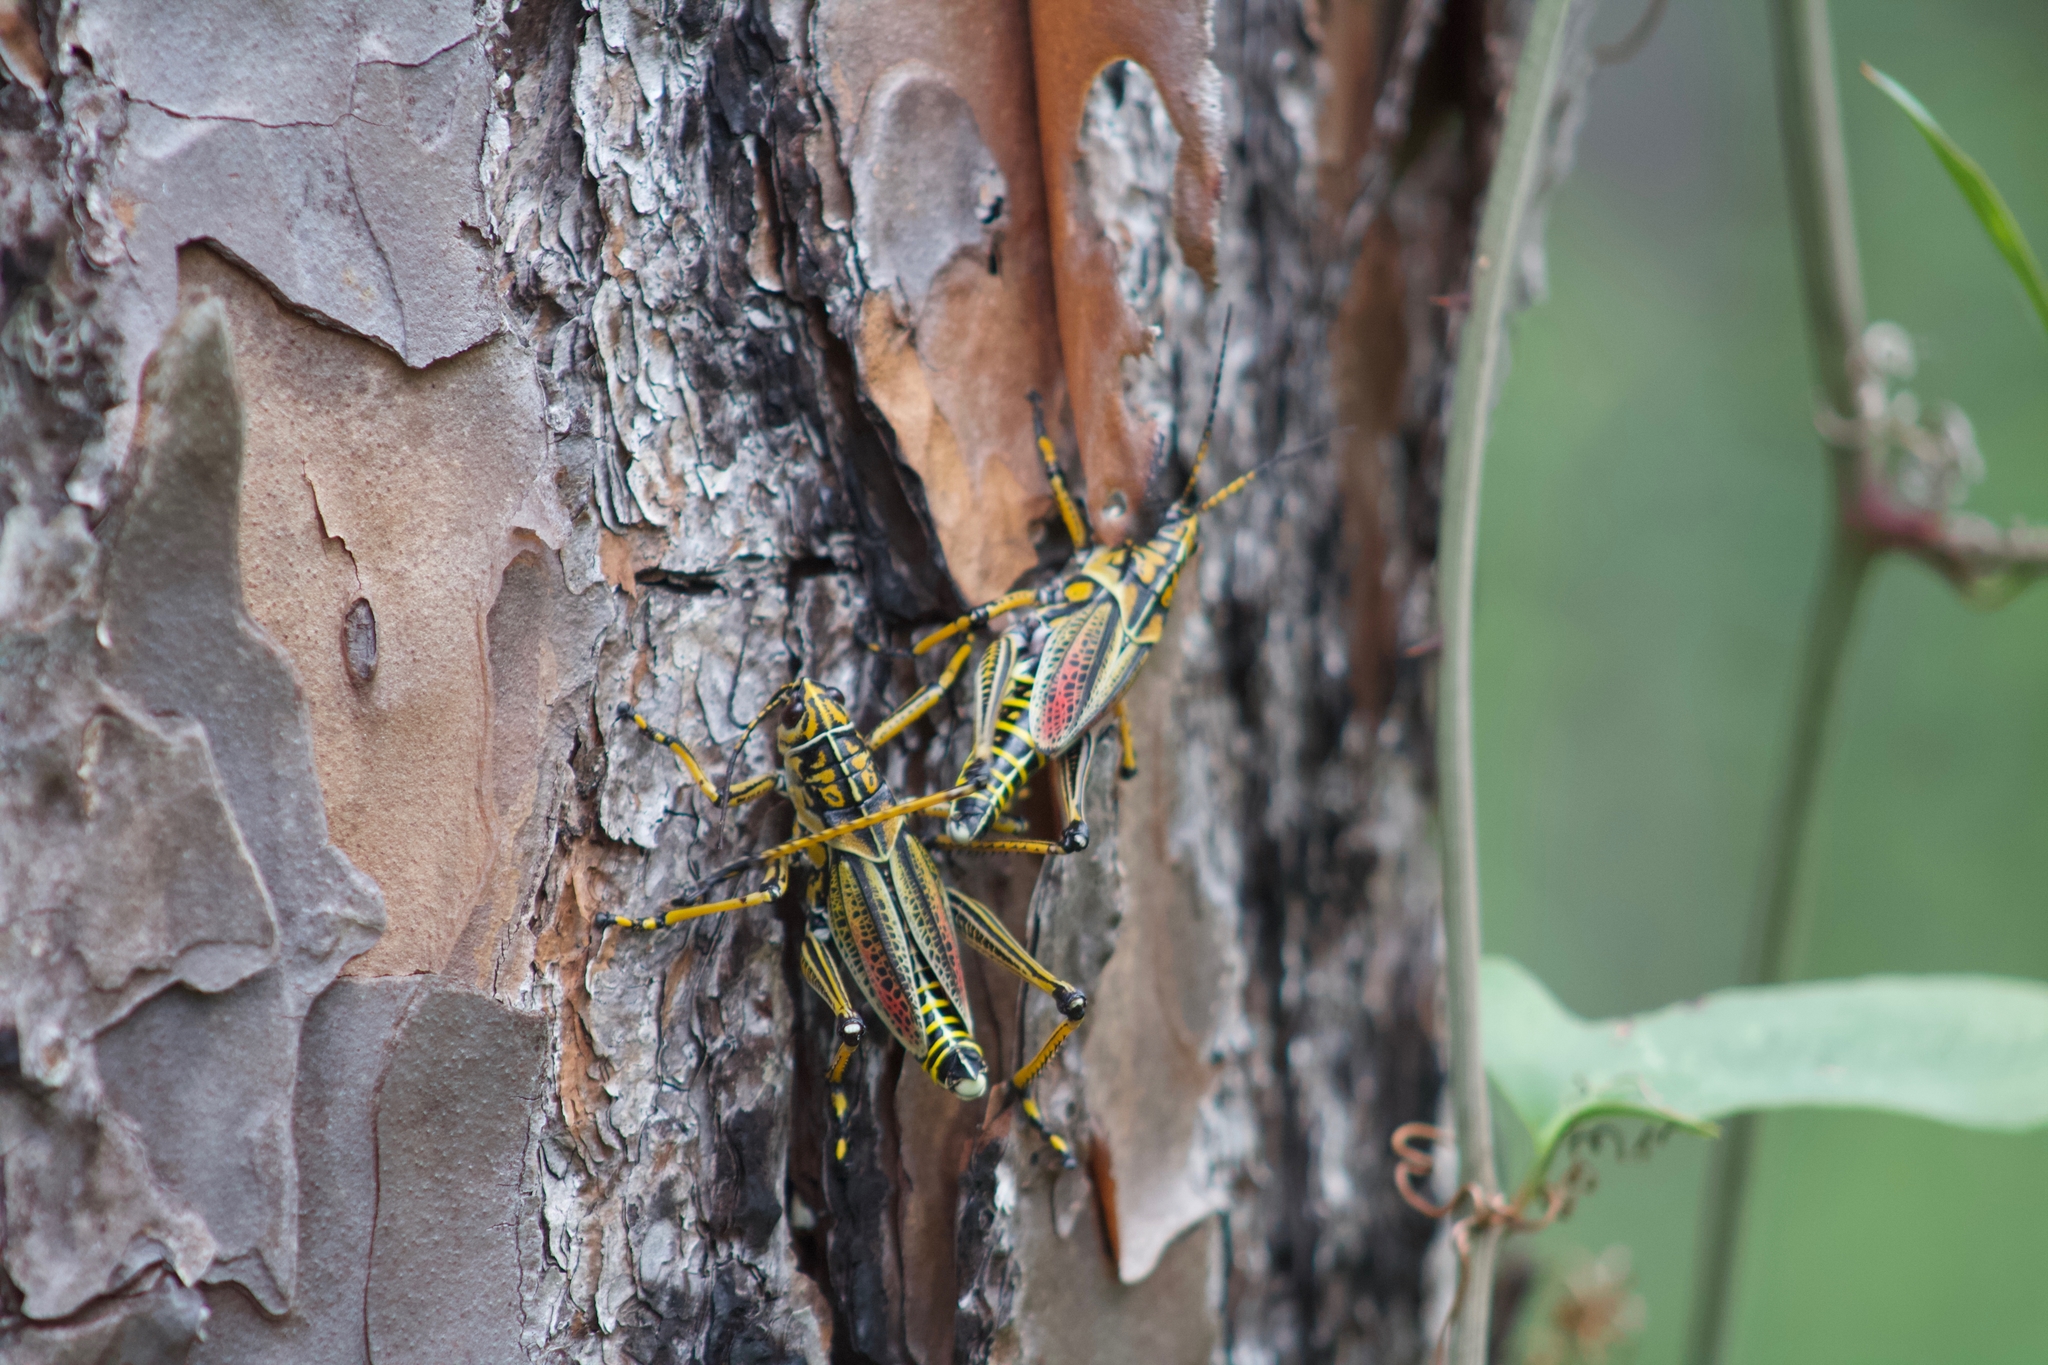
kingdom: Animalia
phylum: Arthropoda
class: Insecta
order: Orthoptera
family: Romaleidae
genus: Romalea
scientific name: Romalea microptera
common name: Eastern lubber grasshopper
